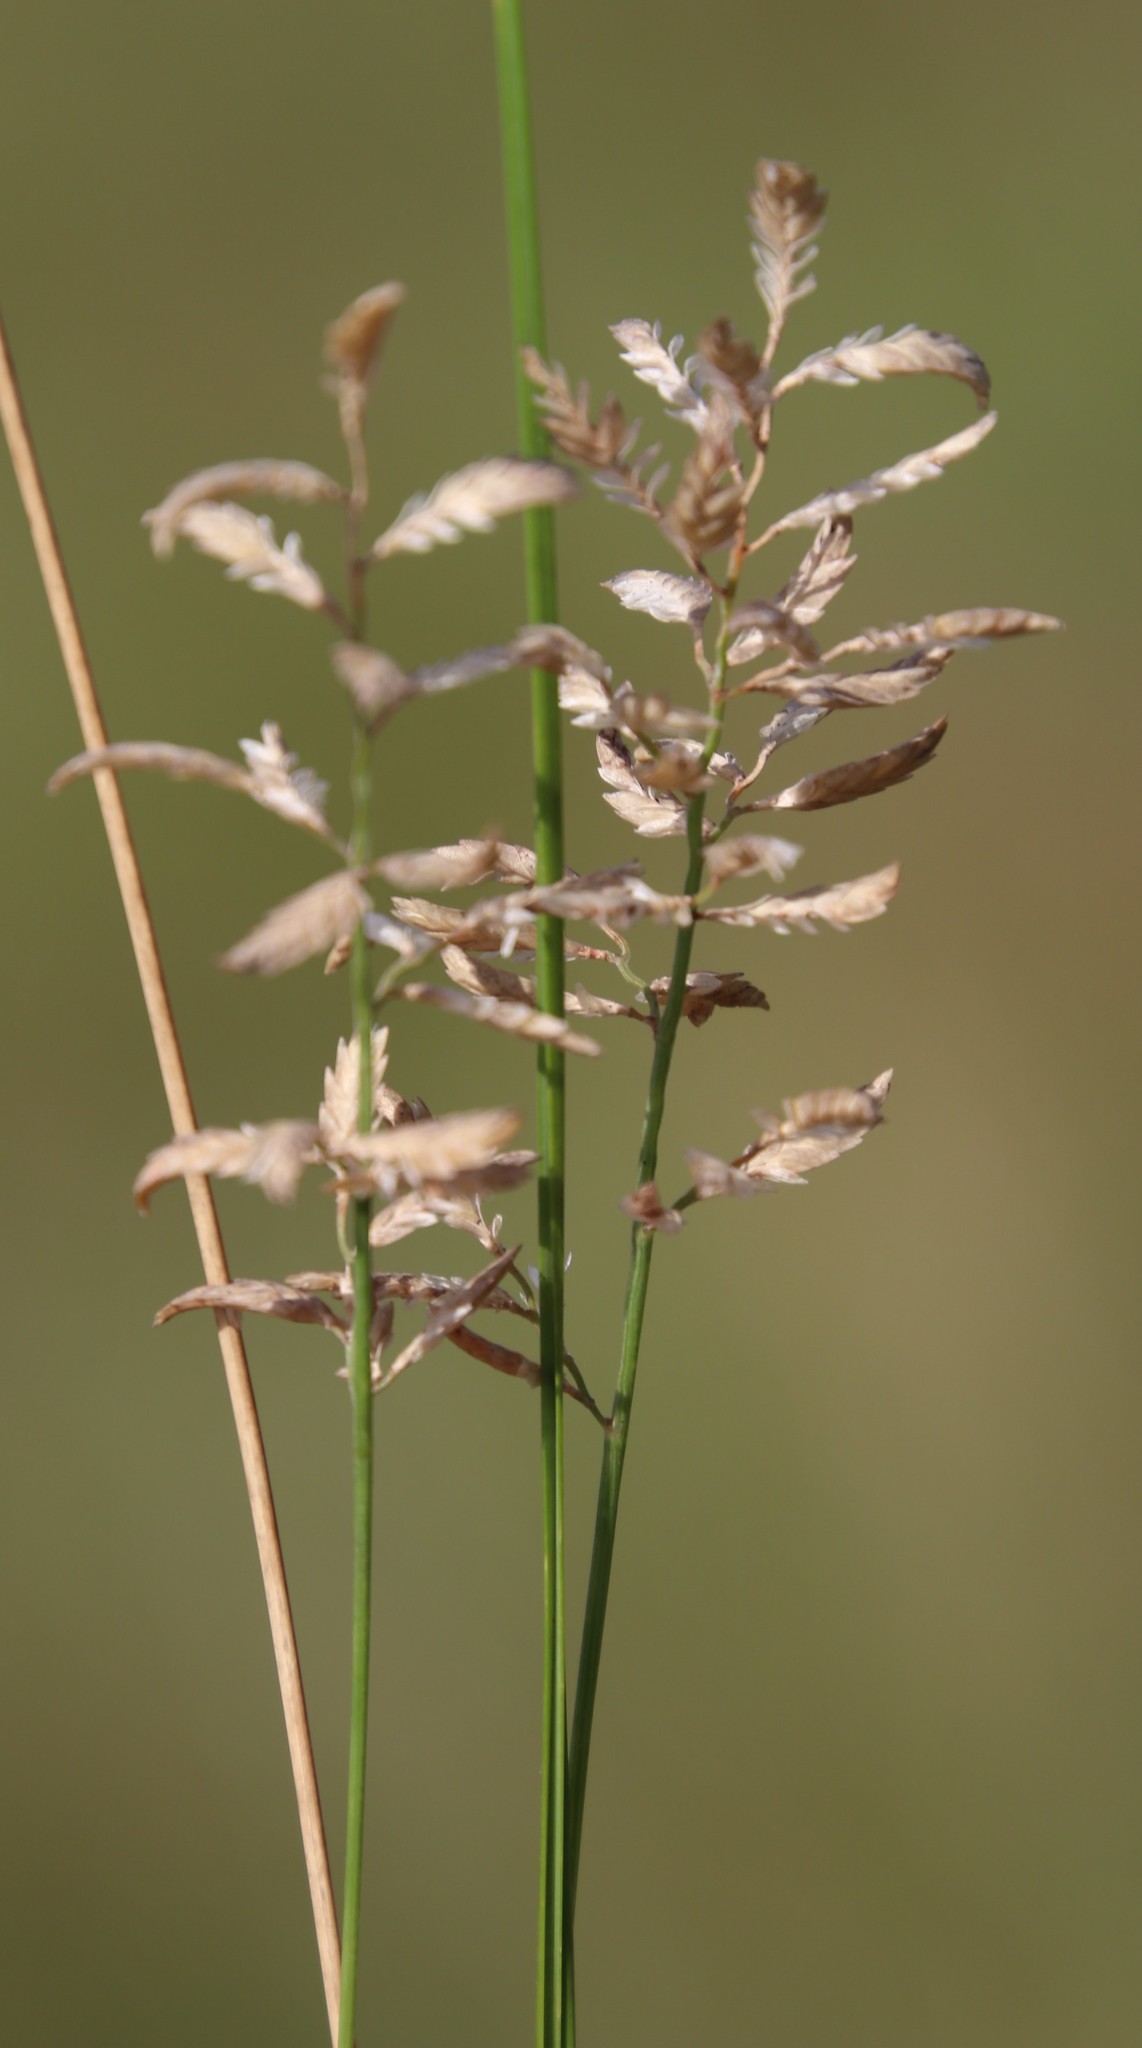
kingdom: Plantae
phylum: Tracheophyta
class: Liliopsida
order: Poales
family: Poaceae
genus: Eragrostis
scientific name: Eragrostis racemosa
